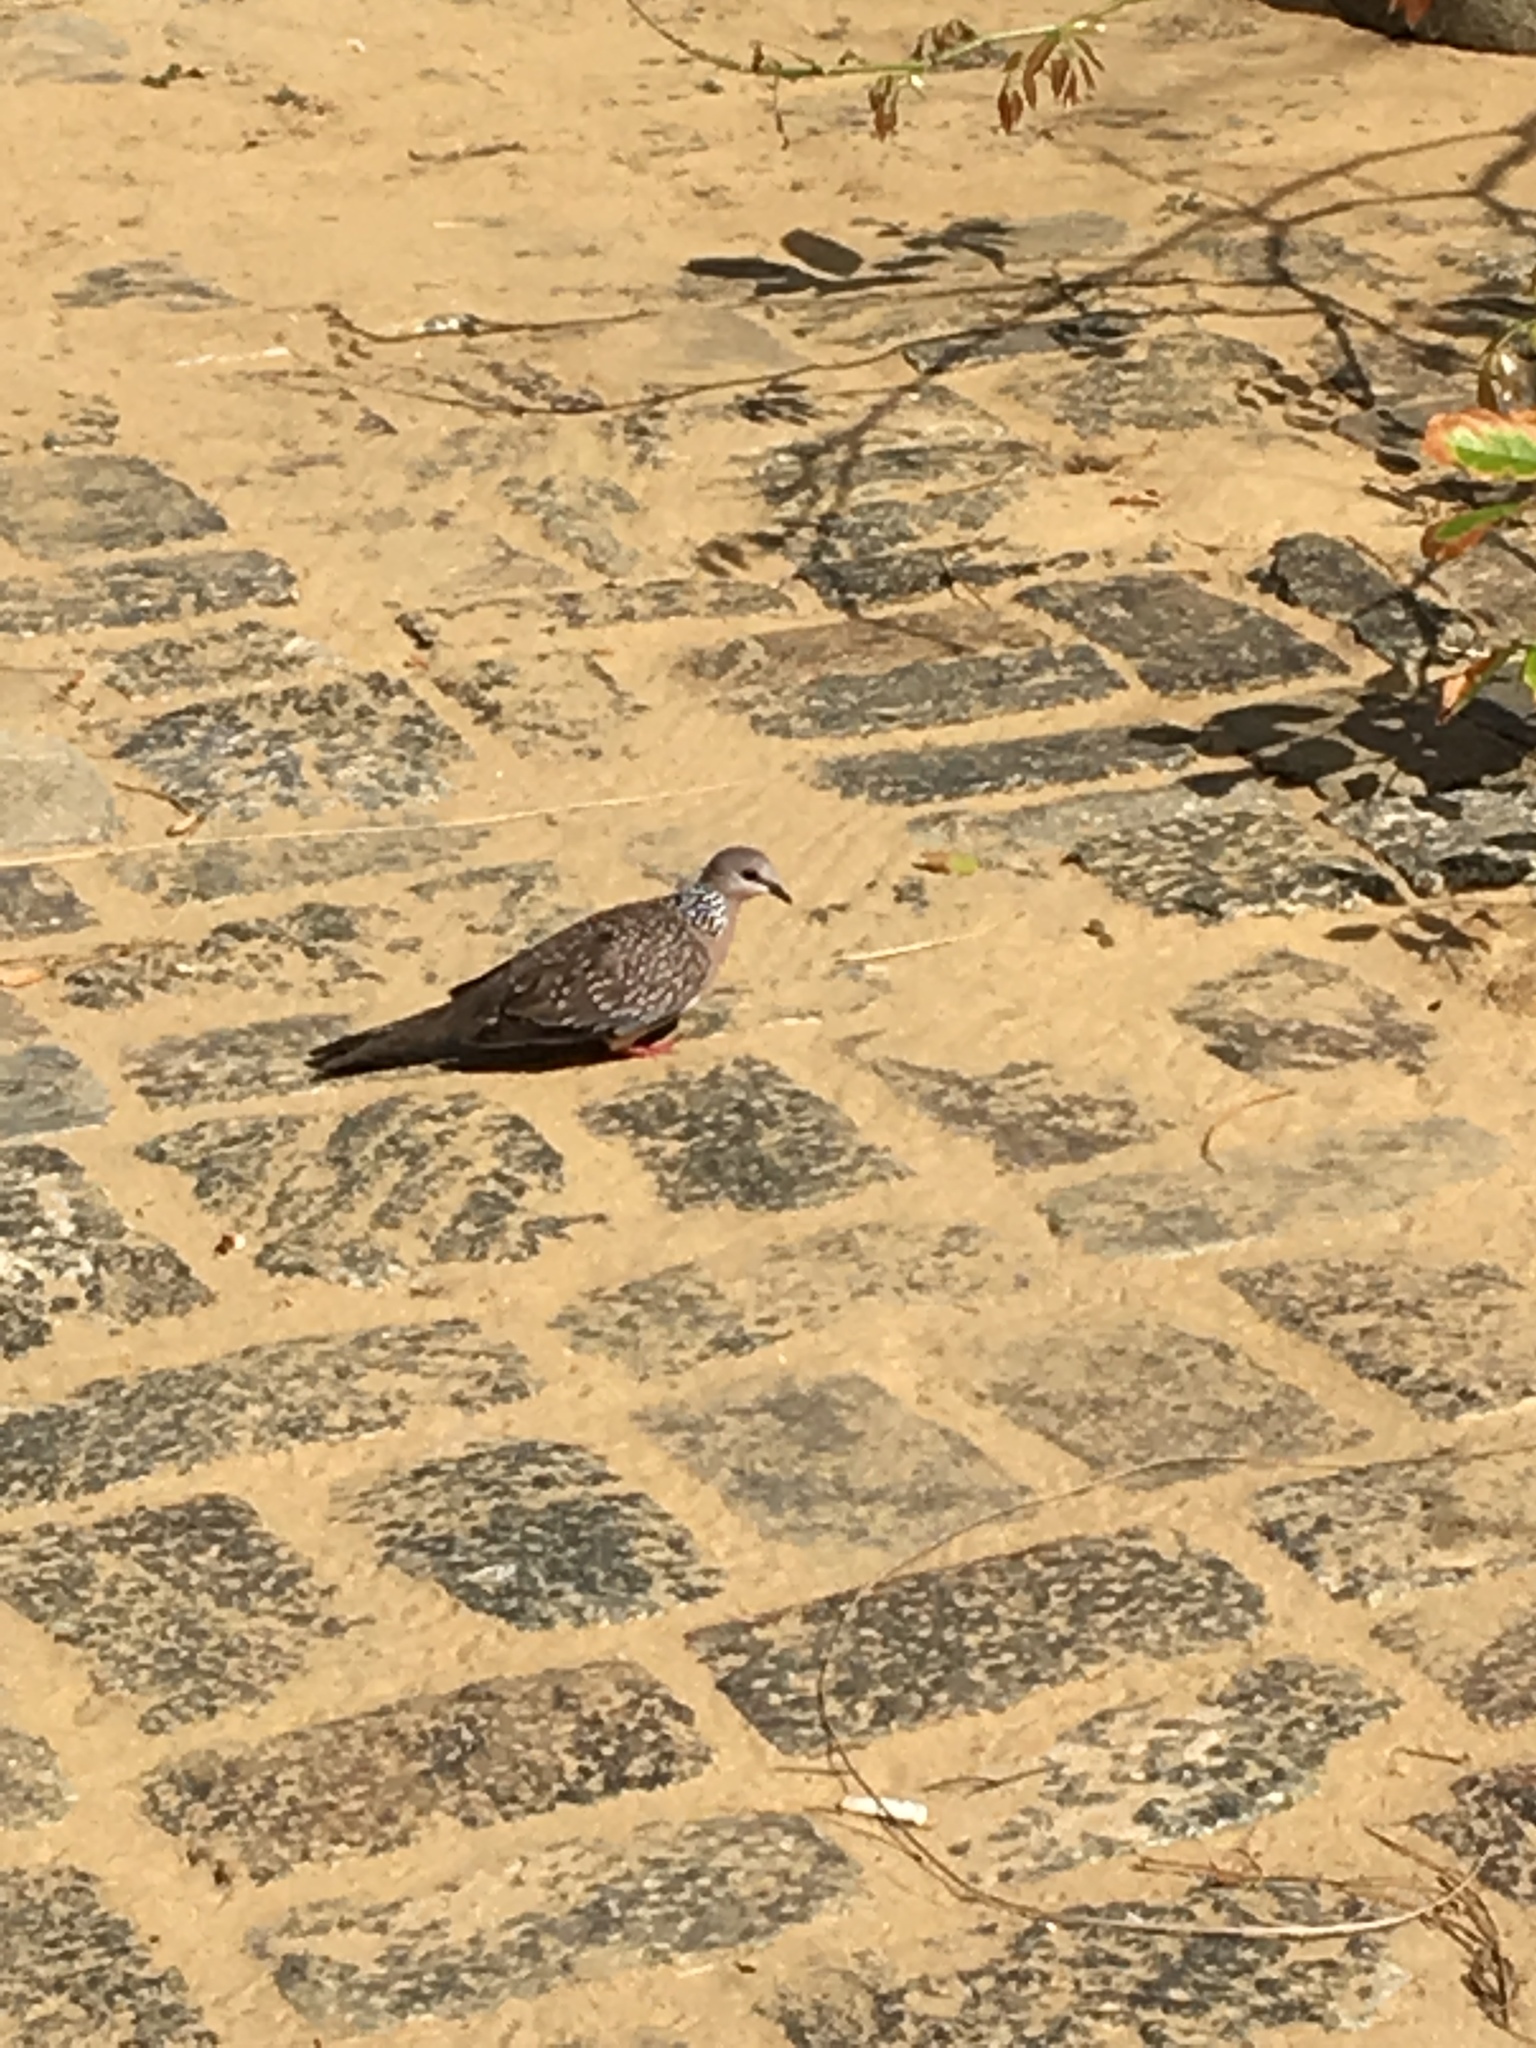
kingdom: Animalia
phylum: Chordata
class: Aves
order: Columbiformes
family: Columbidae
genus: Spilopelia
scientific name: Spilopelia chinensis
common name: Spotted dove
